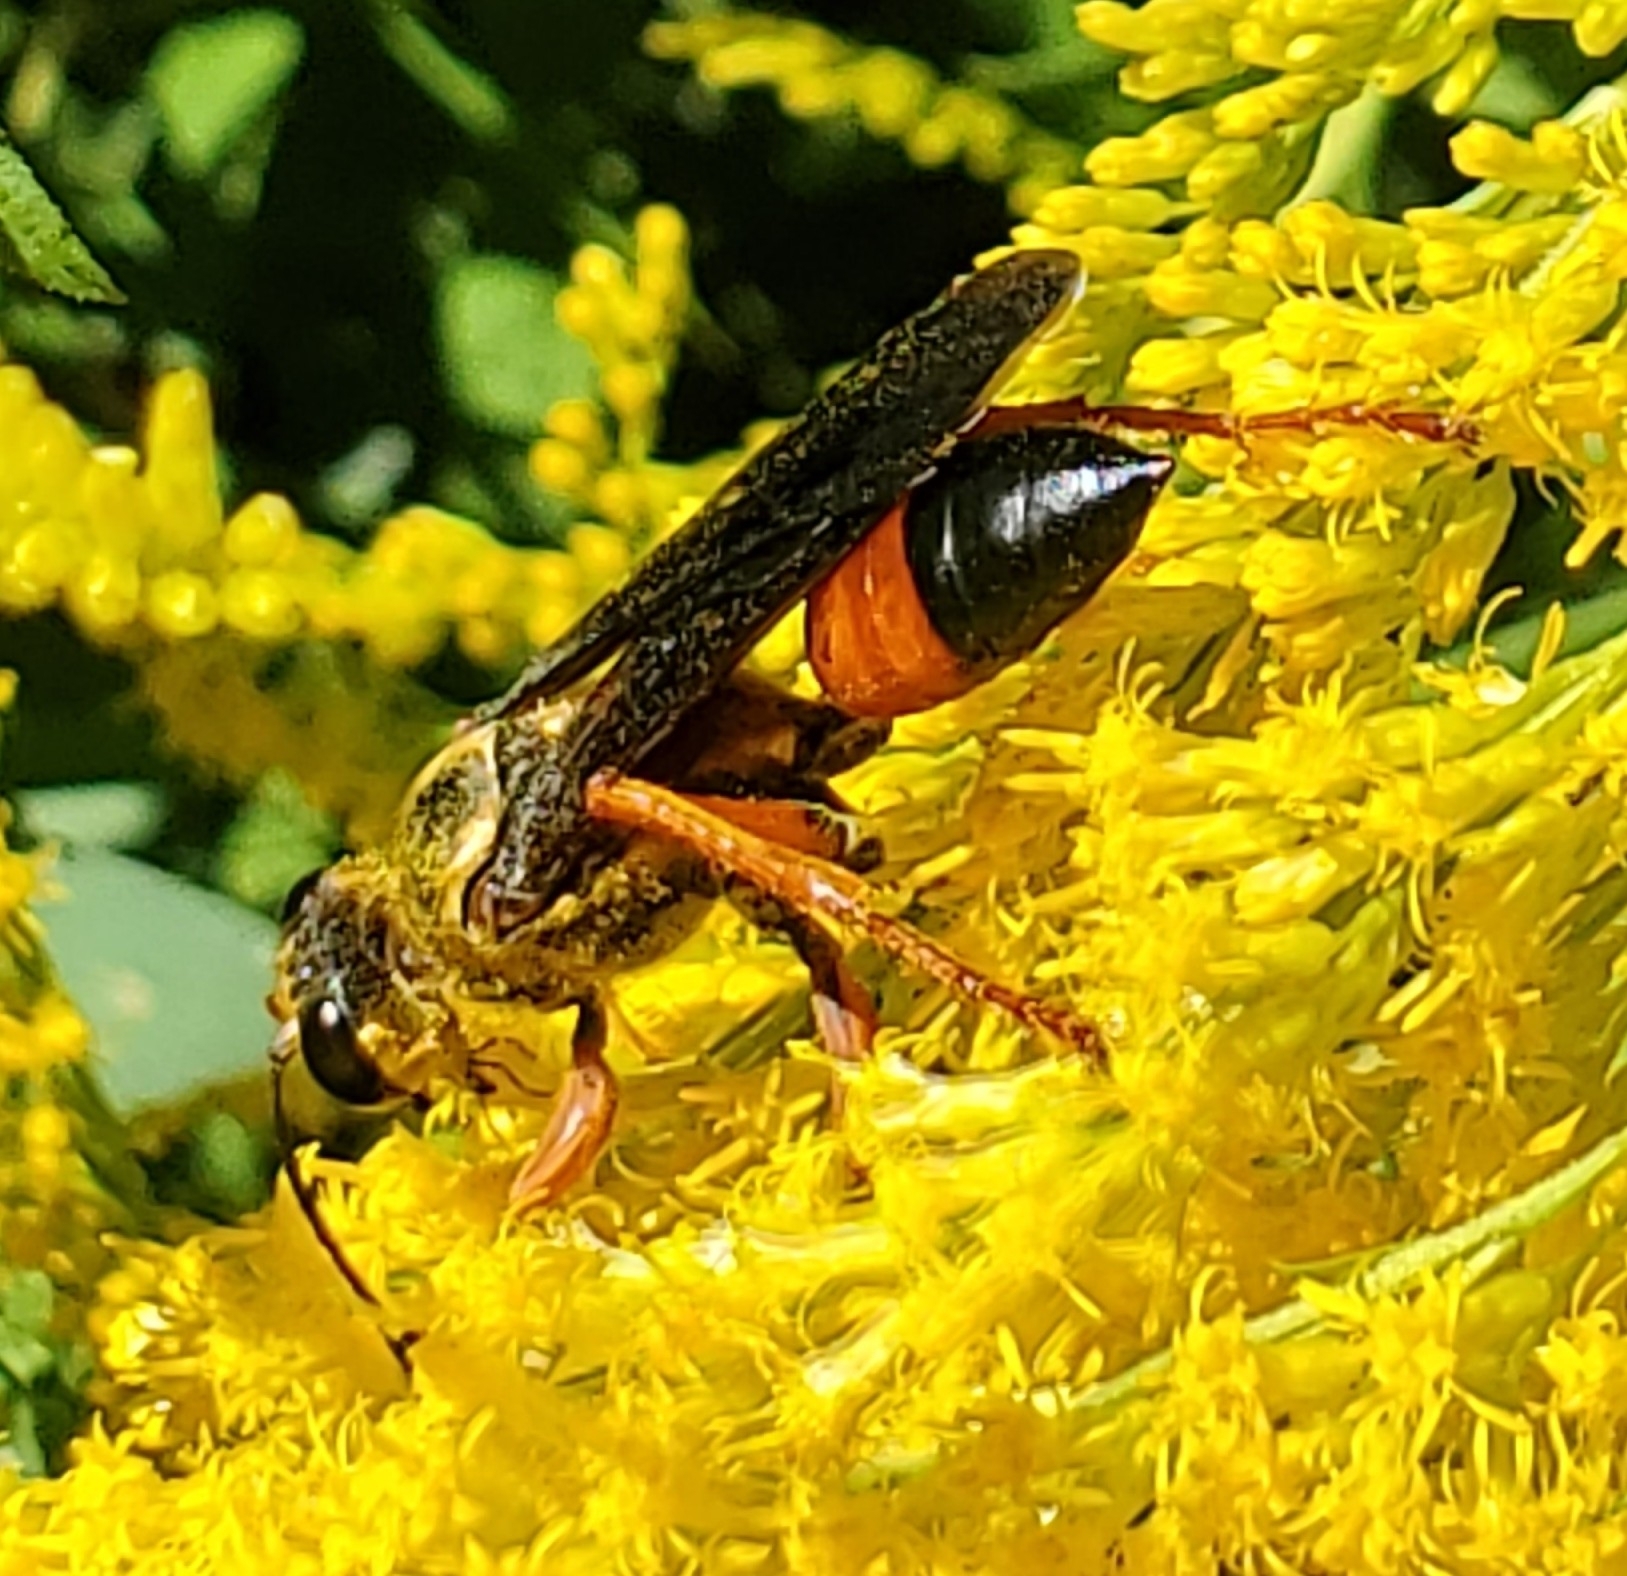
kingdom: Animalia
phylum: Arthropoda
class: Insecta
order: Hymenoptera
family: Sphecidae
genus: Sphex
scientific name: Sphex ichneumoneus
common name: Great golden digger wasp
